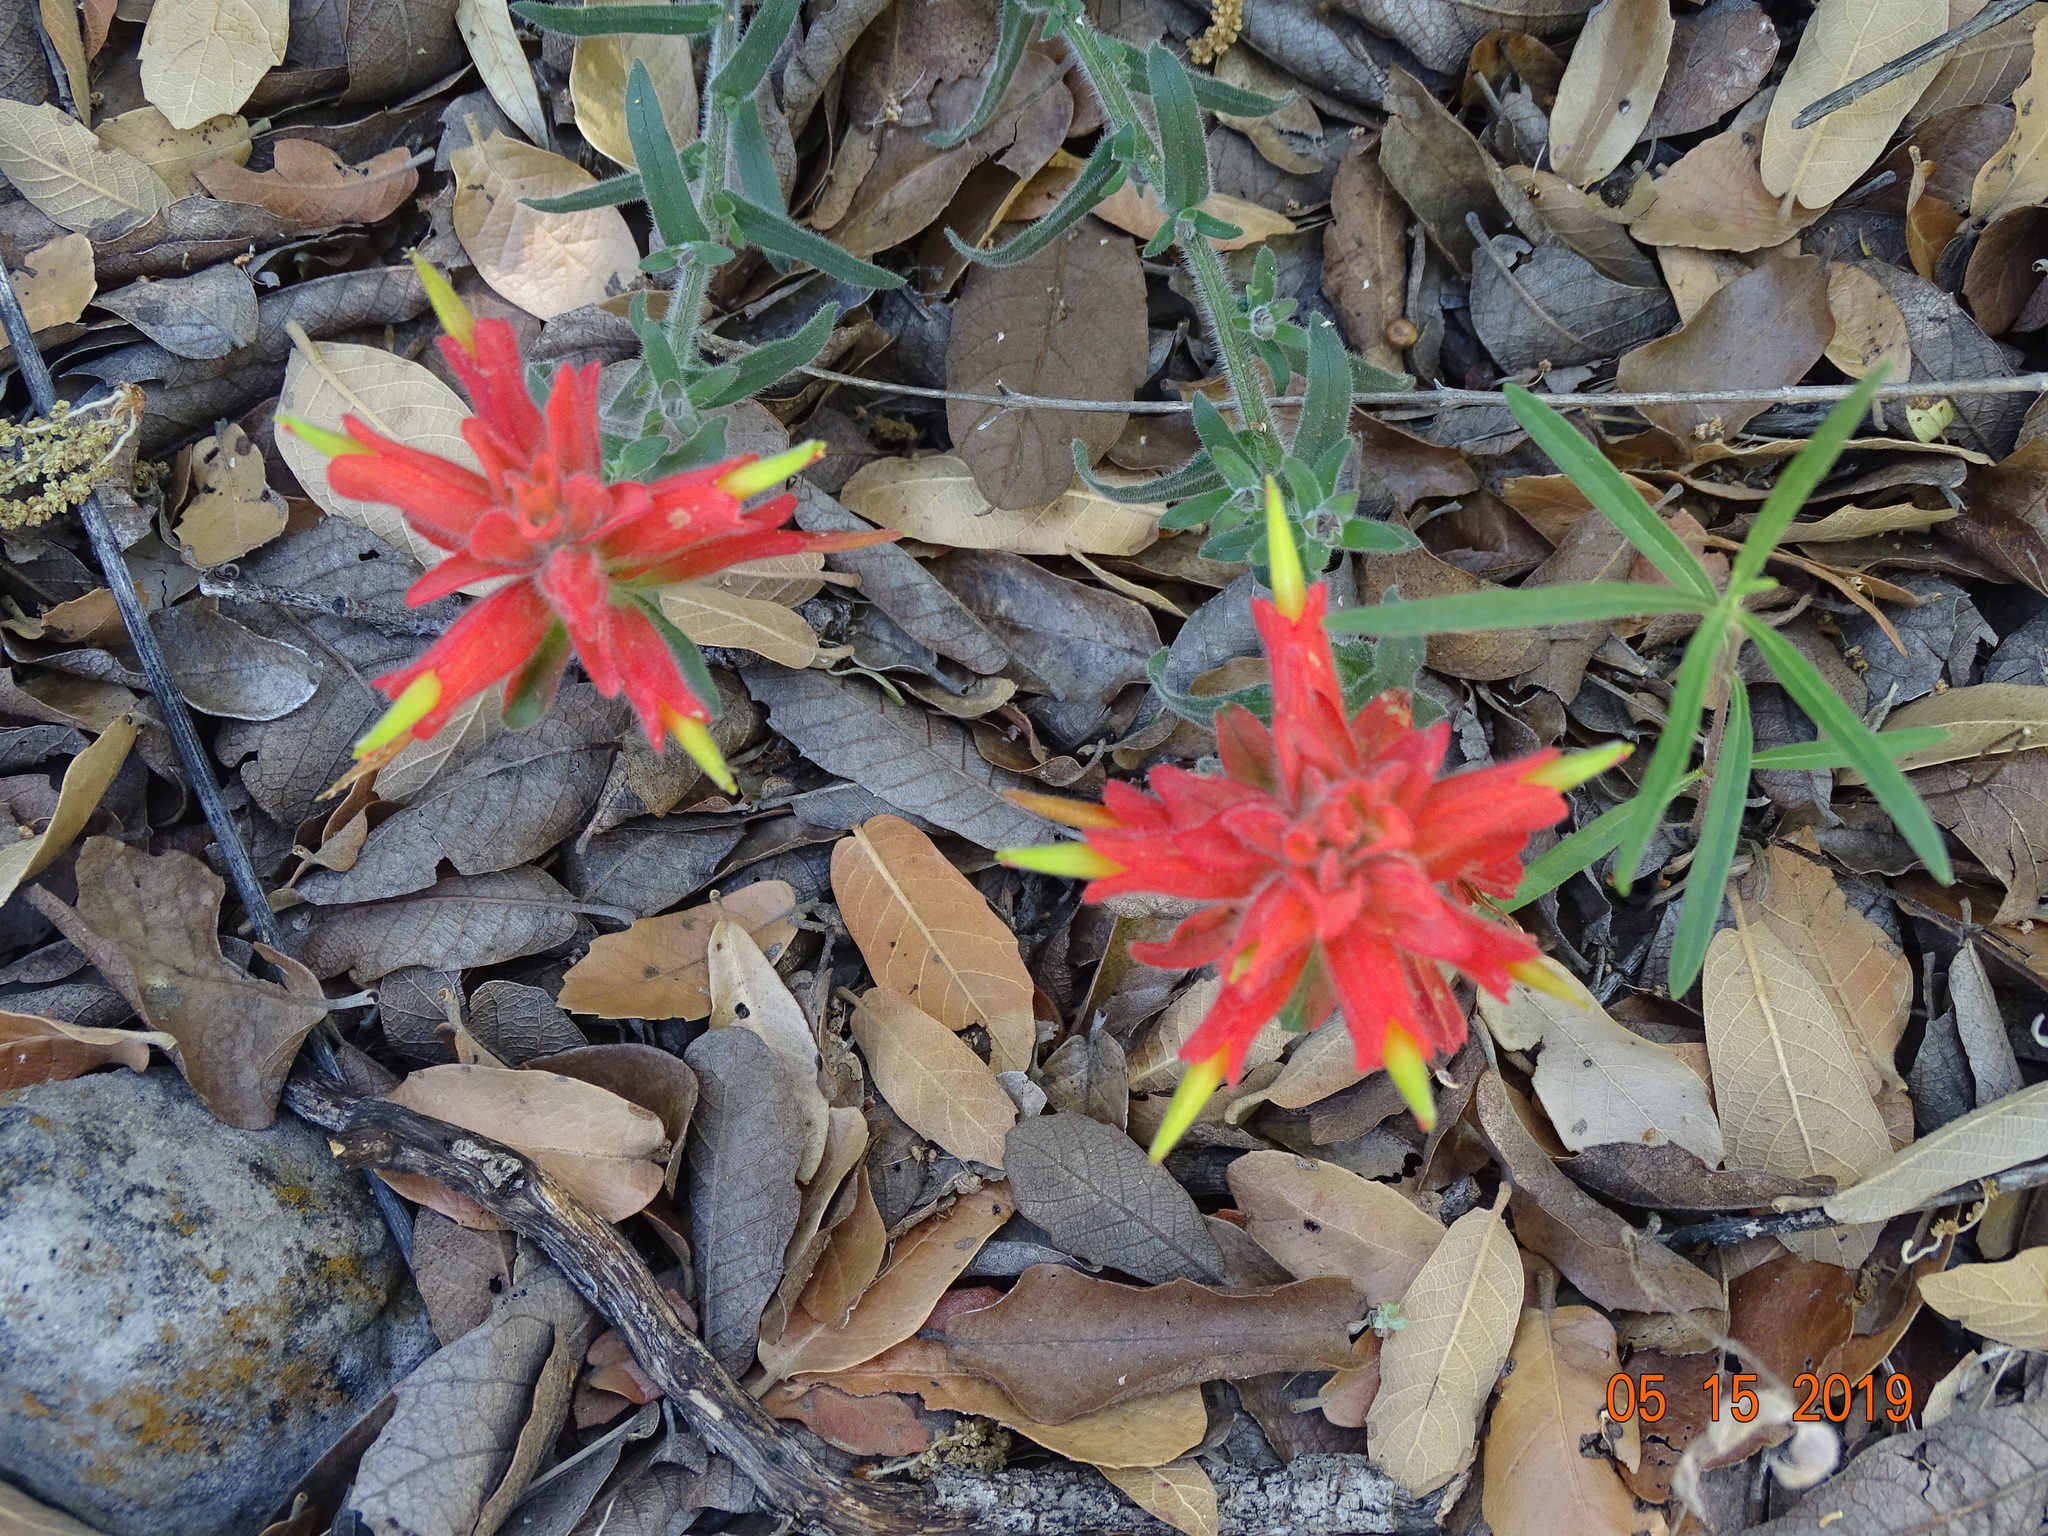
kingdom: Plantae
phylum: Tracheophyta
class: Magnoliopsida
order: Lamiales
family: Orobanchaceae
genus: Castilleja
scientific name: Castilleja tenuiflora
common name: Santa catalina indian paintbrush
